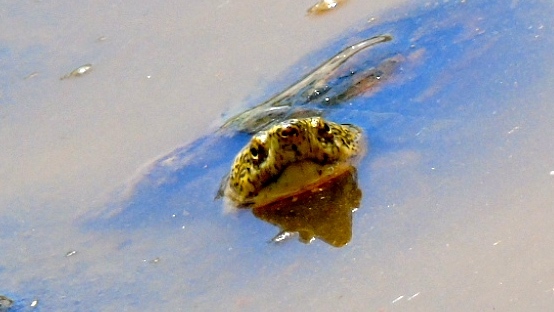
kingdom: Animalia
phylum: Chordata
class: Testudines
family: Kinosternidae
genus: Kinosternon
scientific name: Kinosternon integrum
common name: Mexican mud turtle
